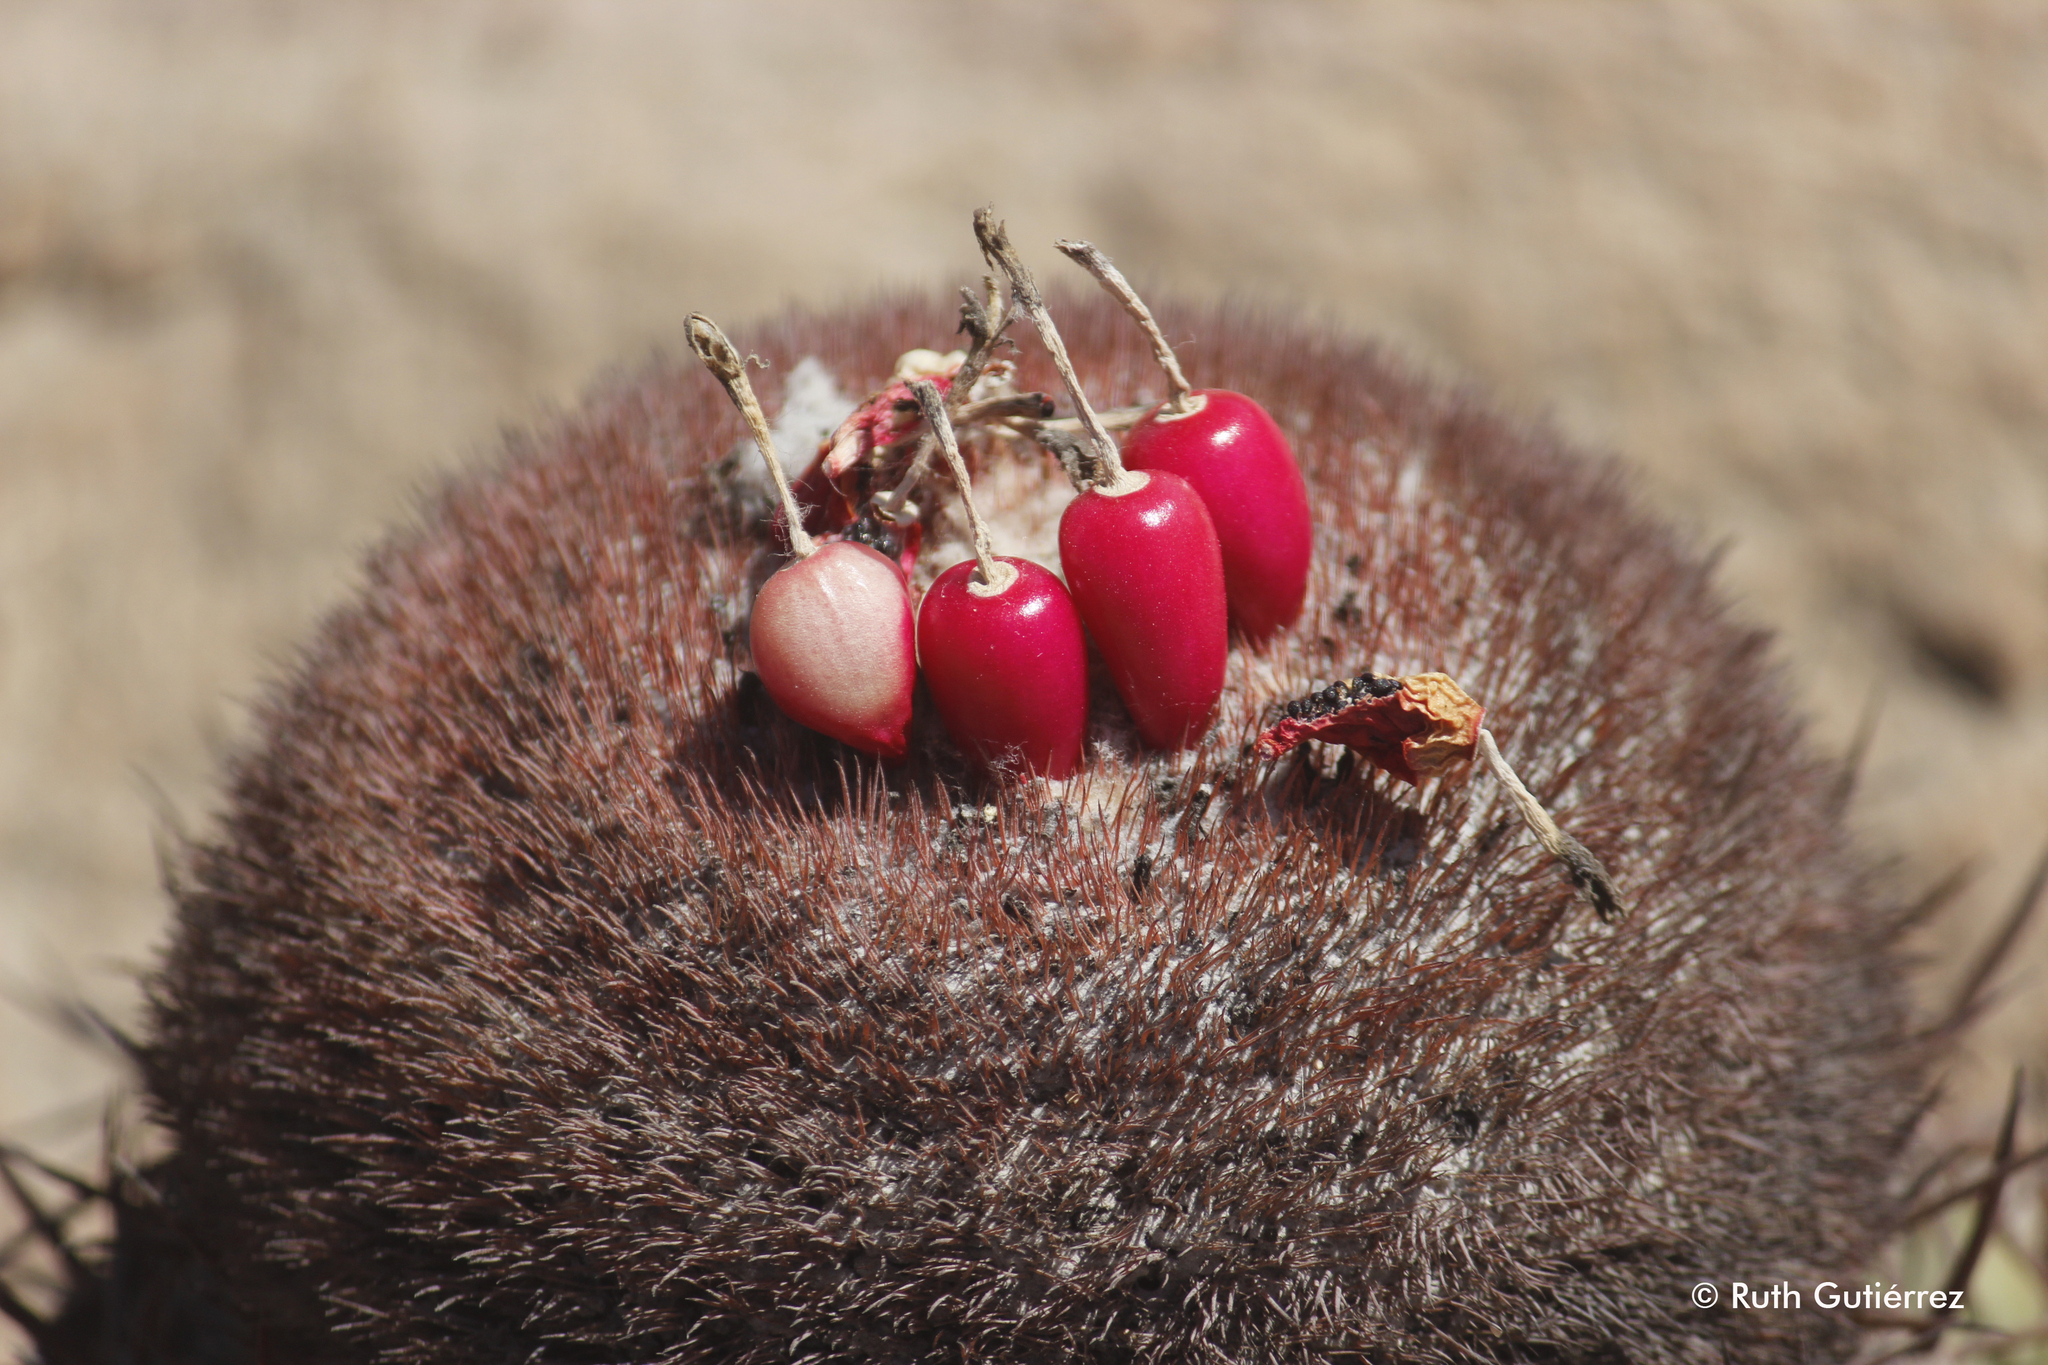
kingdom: Plantae
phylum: Tracheophyta
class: Magnoliopsida
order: Caryophyllales
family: Cactaceae
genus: Melocactus
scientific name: Melocactus peruvianus
